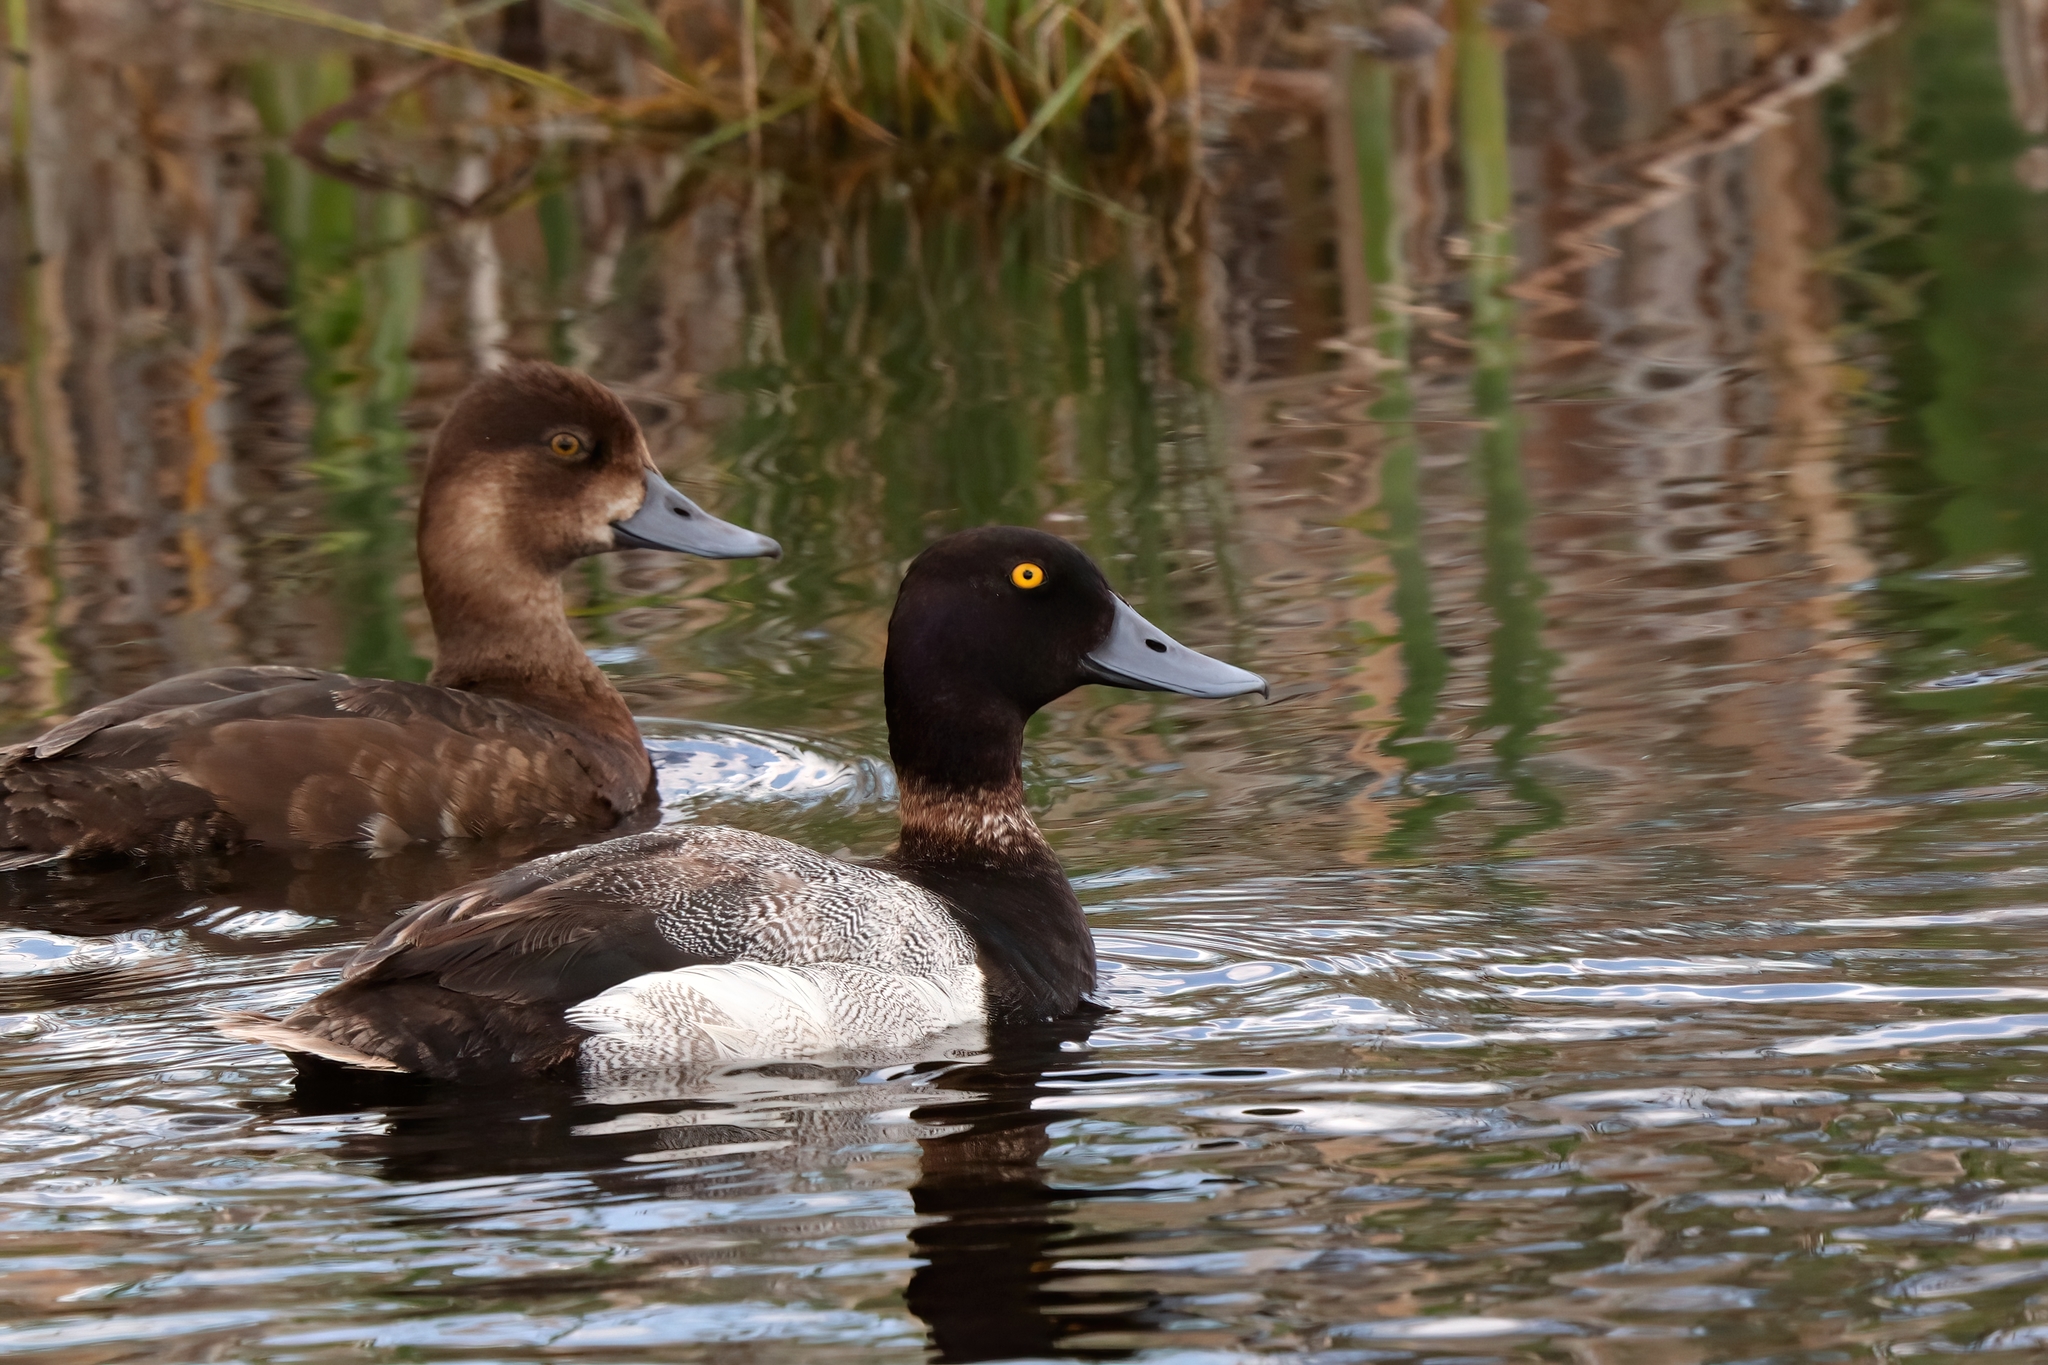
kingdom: Animalia
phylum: Chordata
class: Aves
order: Anseriformes
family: Anatidae
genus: Aythya
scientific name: Aythya affinis
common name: Lesser scaup
